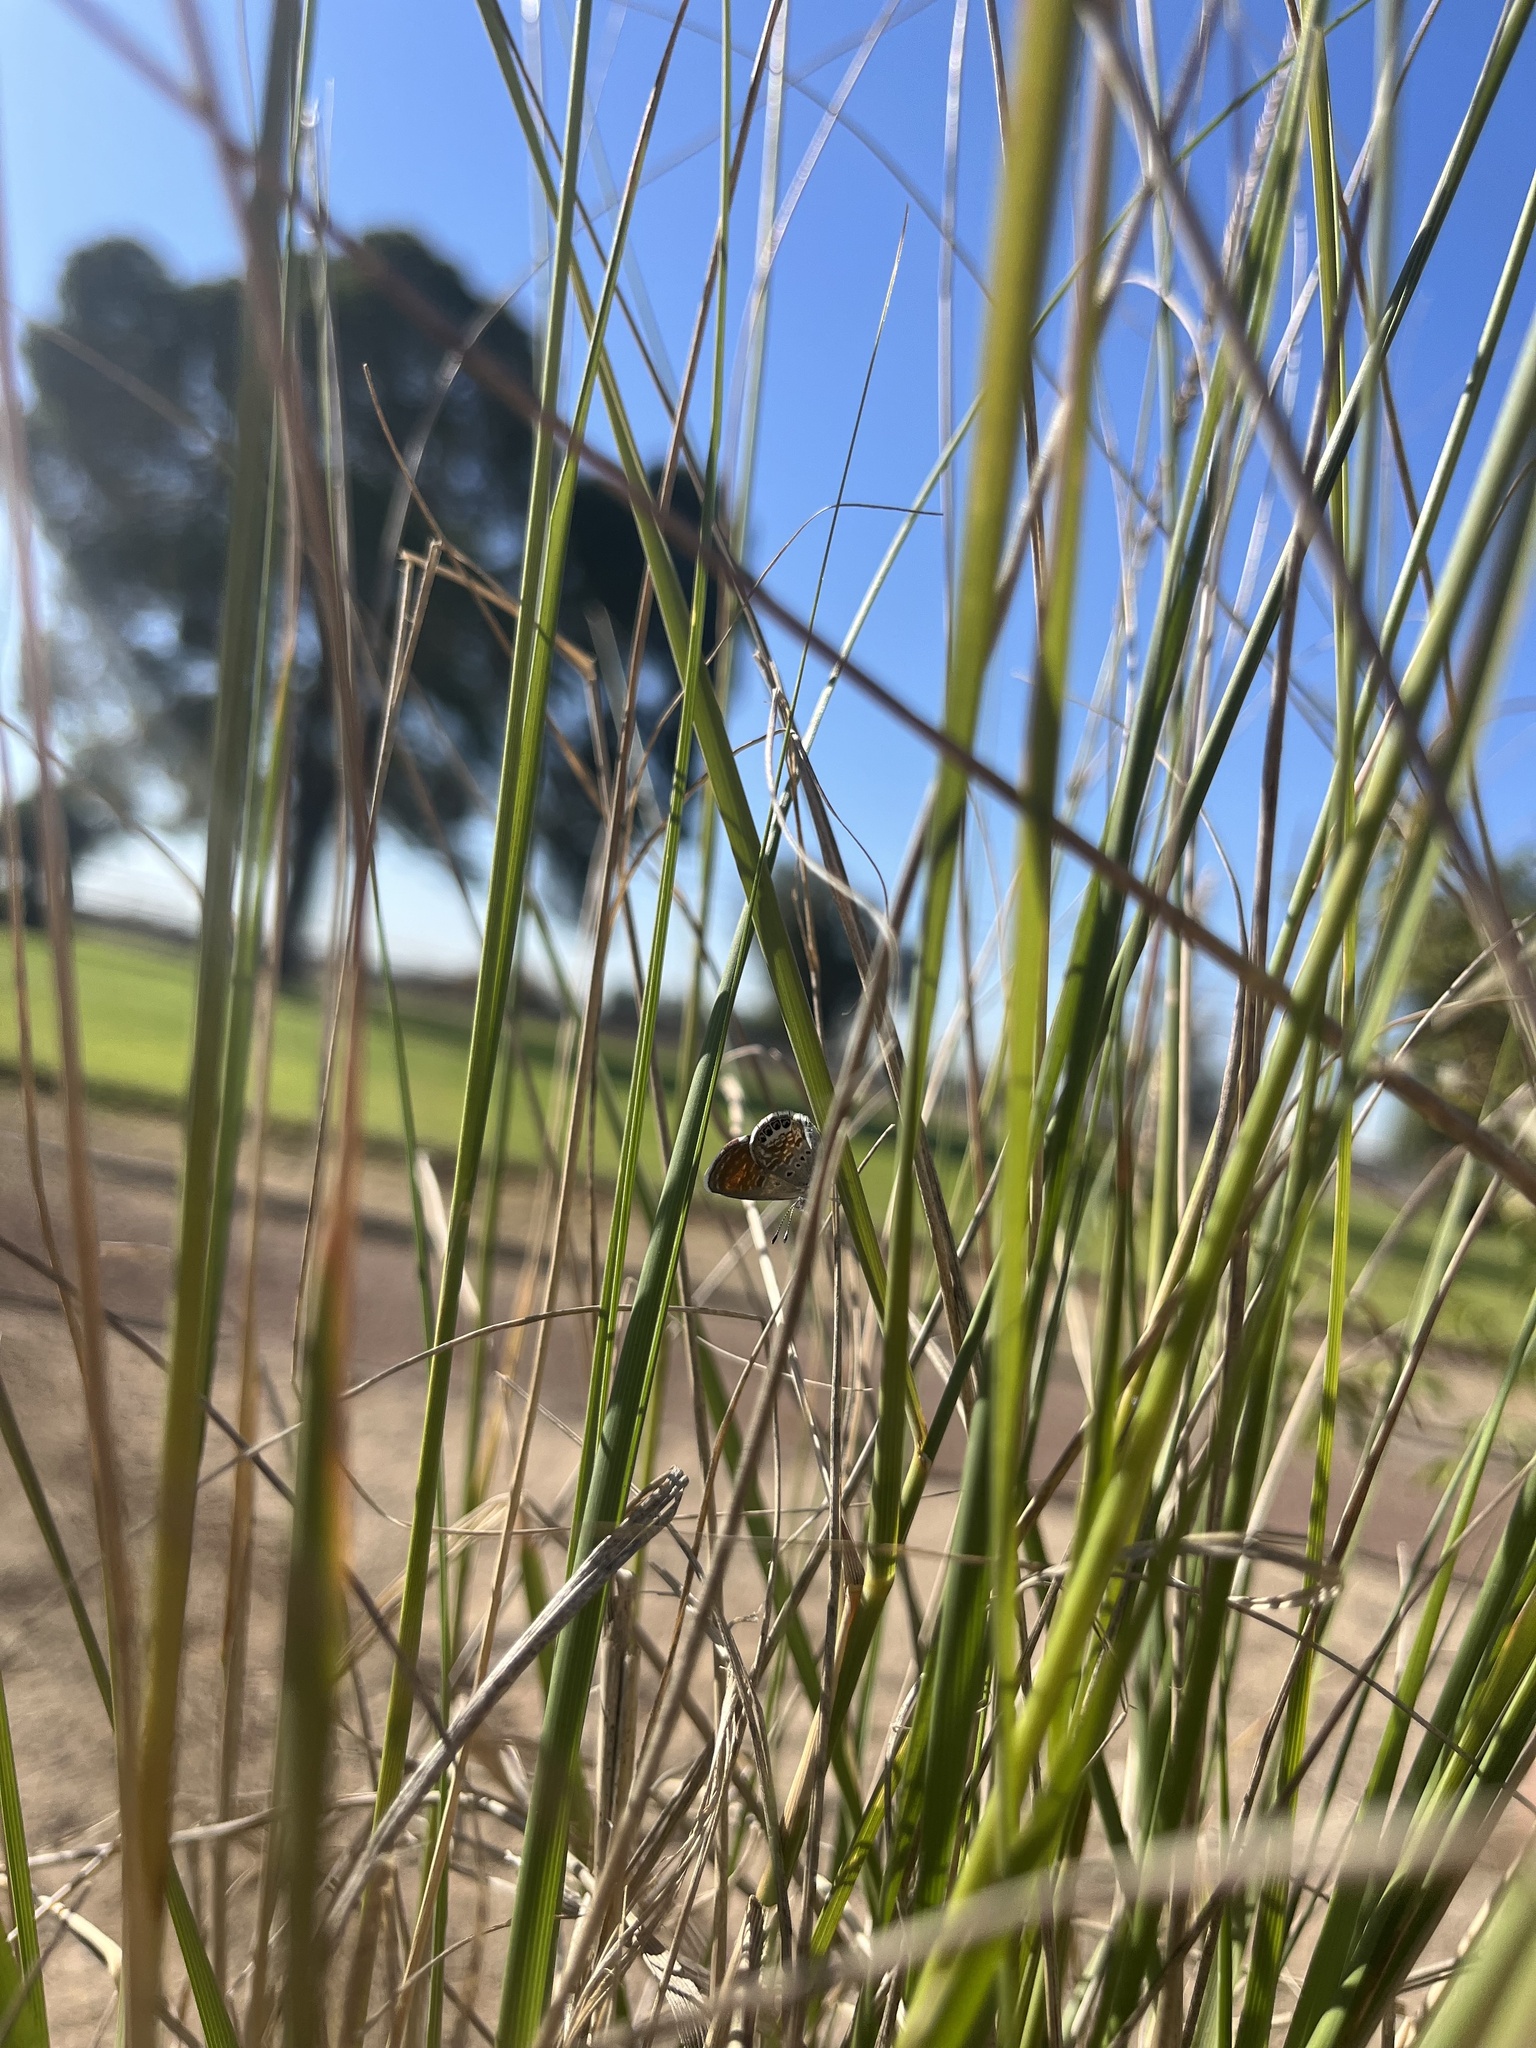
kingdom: Animalia
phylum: Arthropoda
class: Insecta
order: Lepidoptera
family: Lycaenidae
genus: Brephidium
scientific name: Brephidium exilis
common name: Pygmy blue
